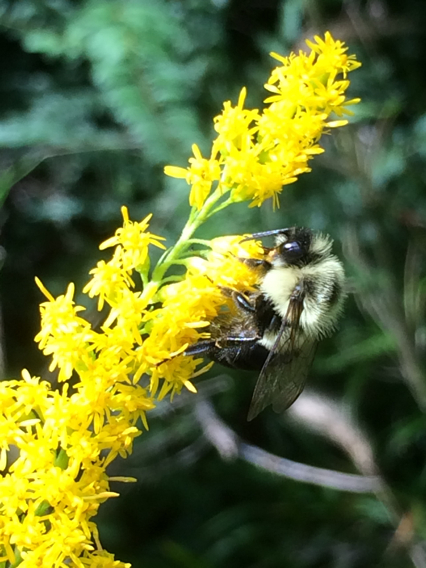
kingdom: Animalia
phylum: Arthropoda
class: Insecta
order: Hymenoptera
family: Apidae
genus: Bombus
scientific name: Bombus impatiens
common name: Common eastern bumble bee
